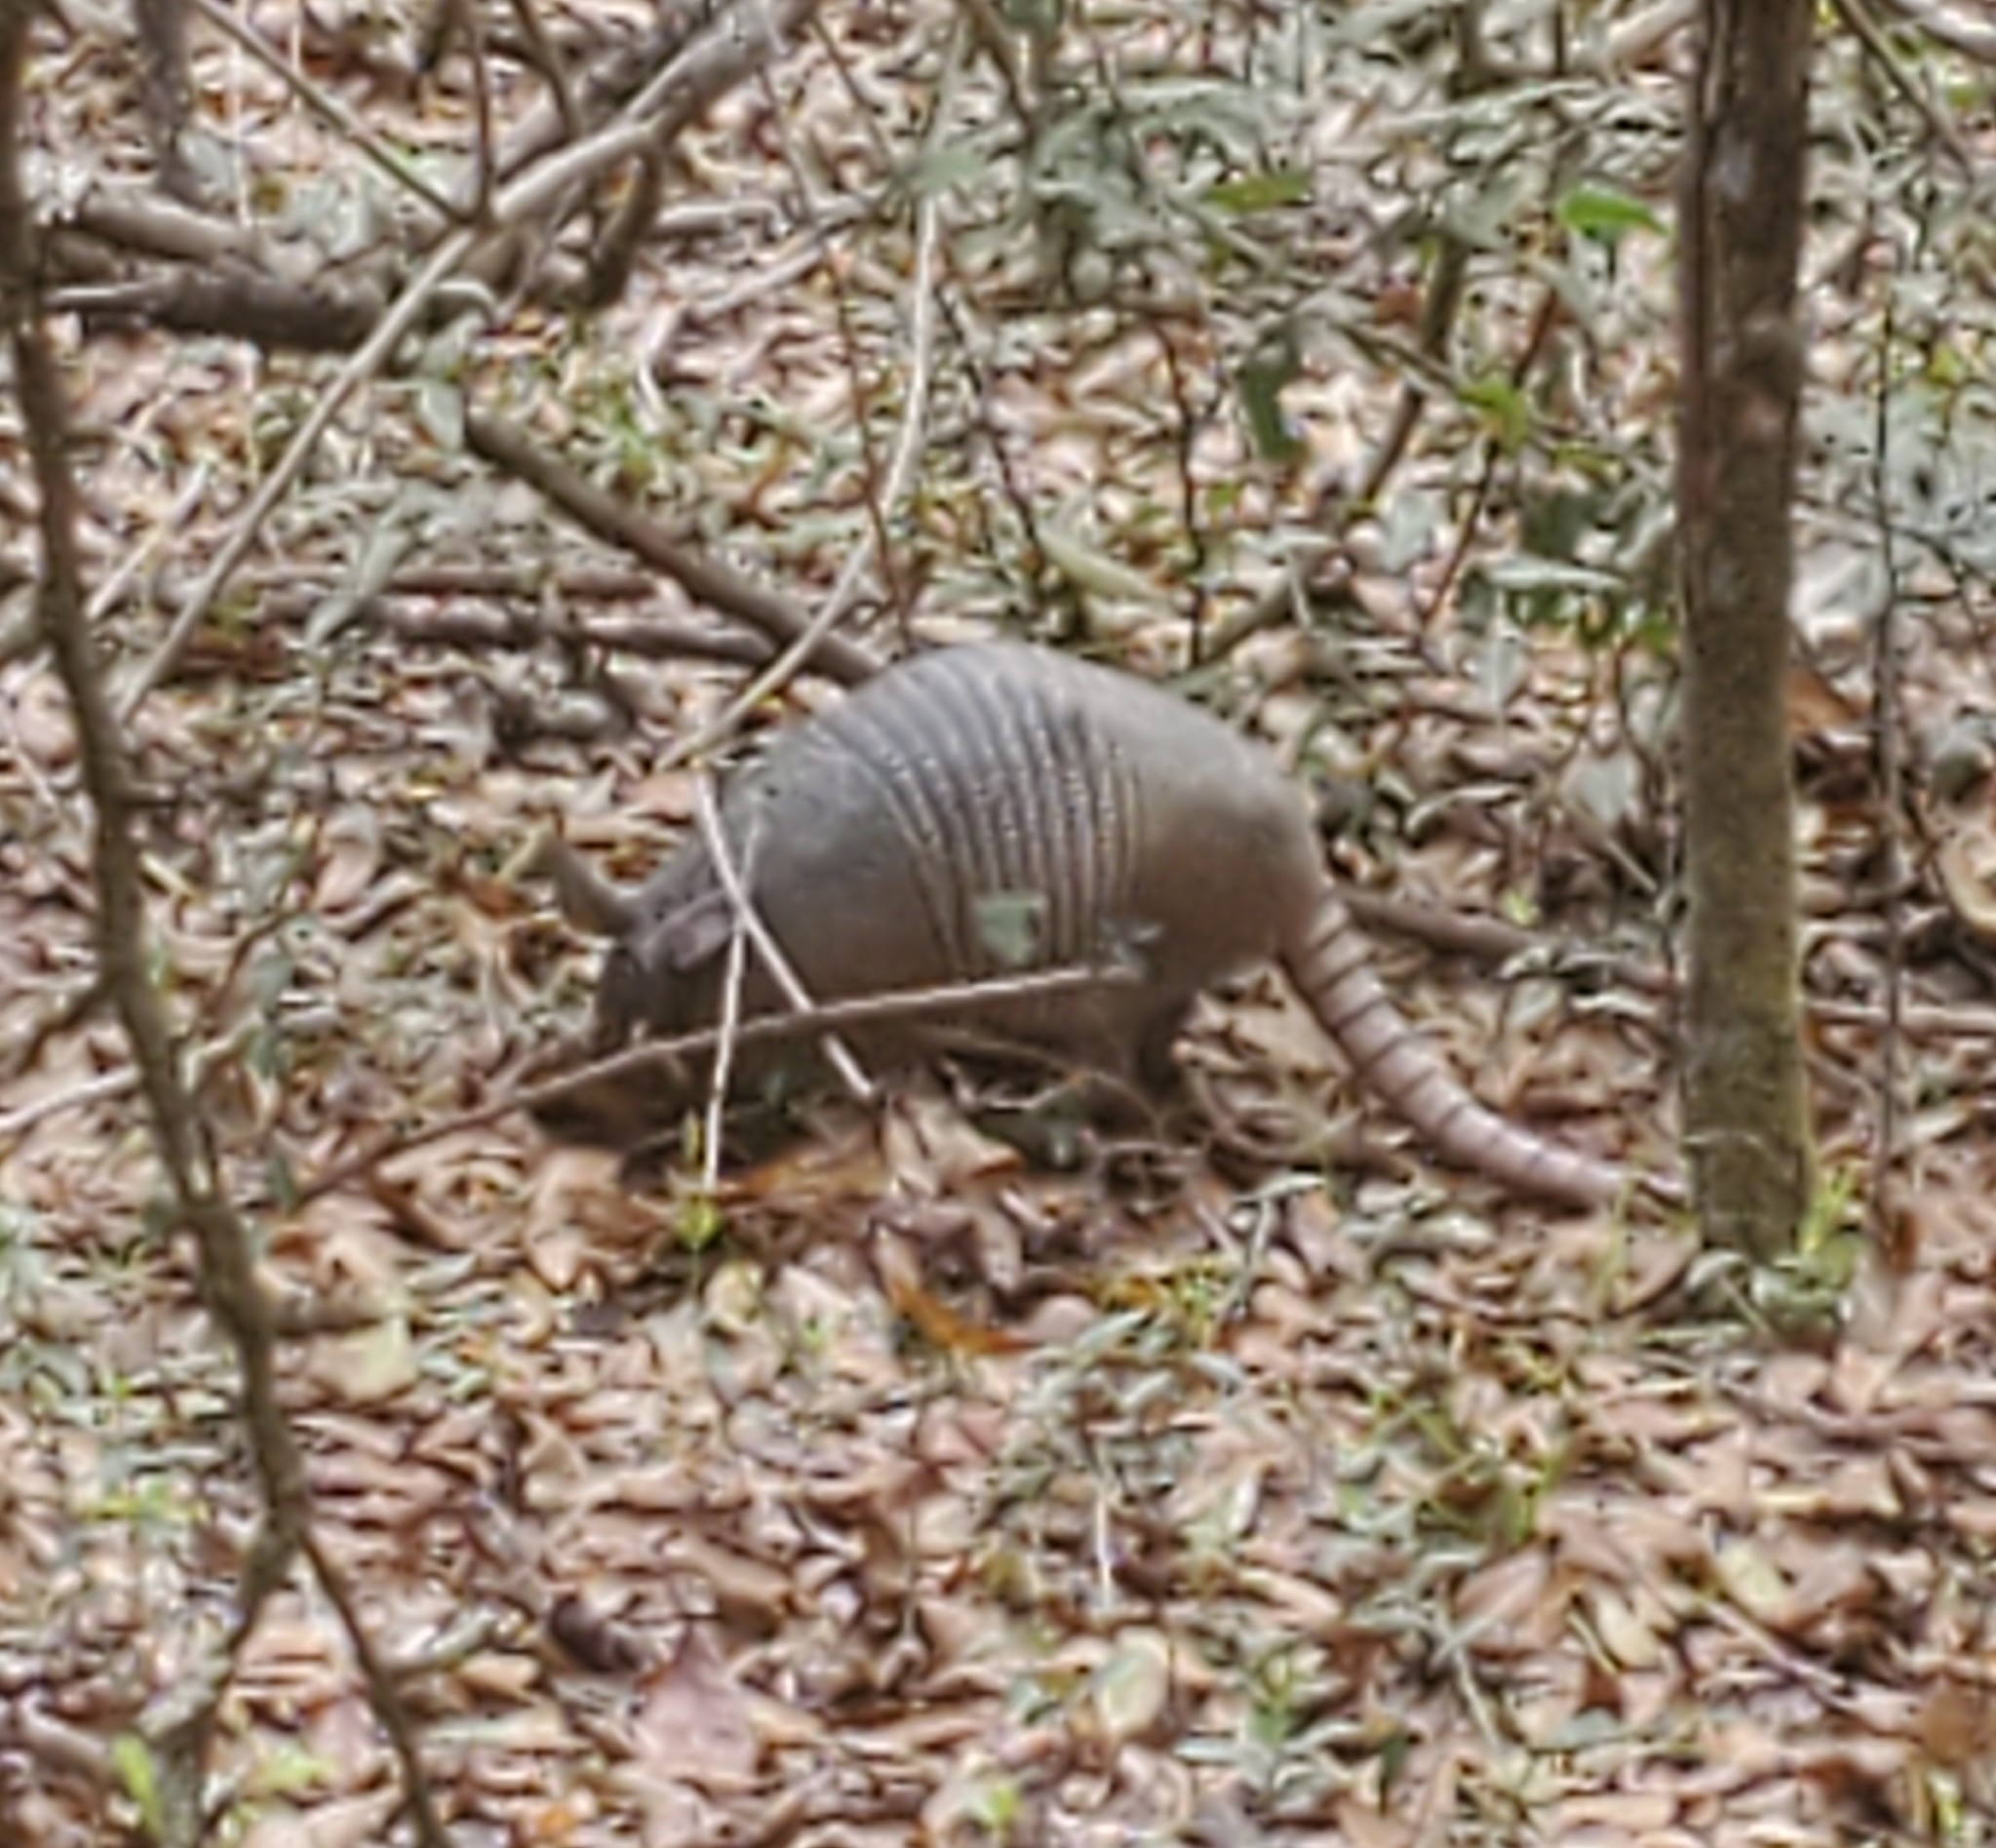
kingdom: Animalia
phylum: Chordata
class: Mammalia
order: Cingulata
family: Dasypodidae
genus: Dasypus
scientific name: Dasypus novemcinctus
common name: Nine-banded armadillo
